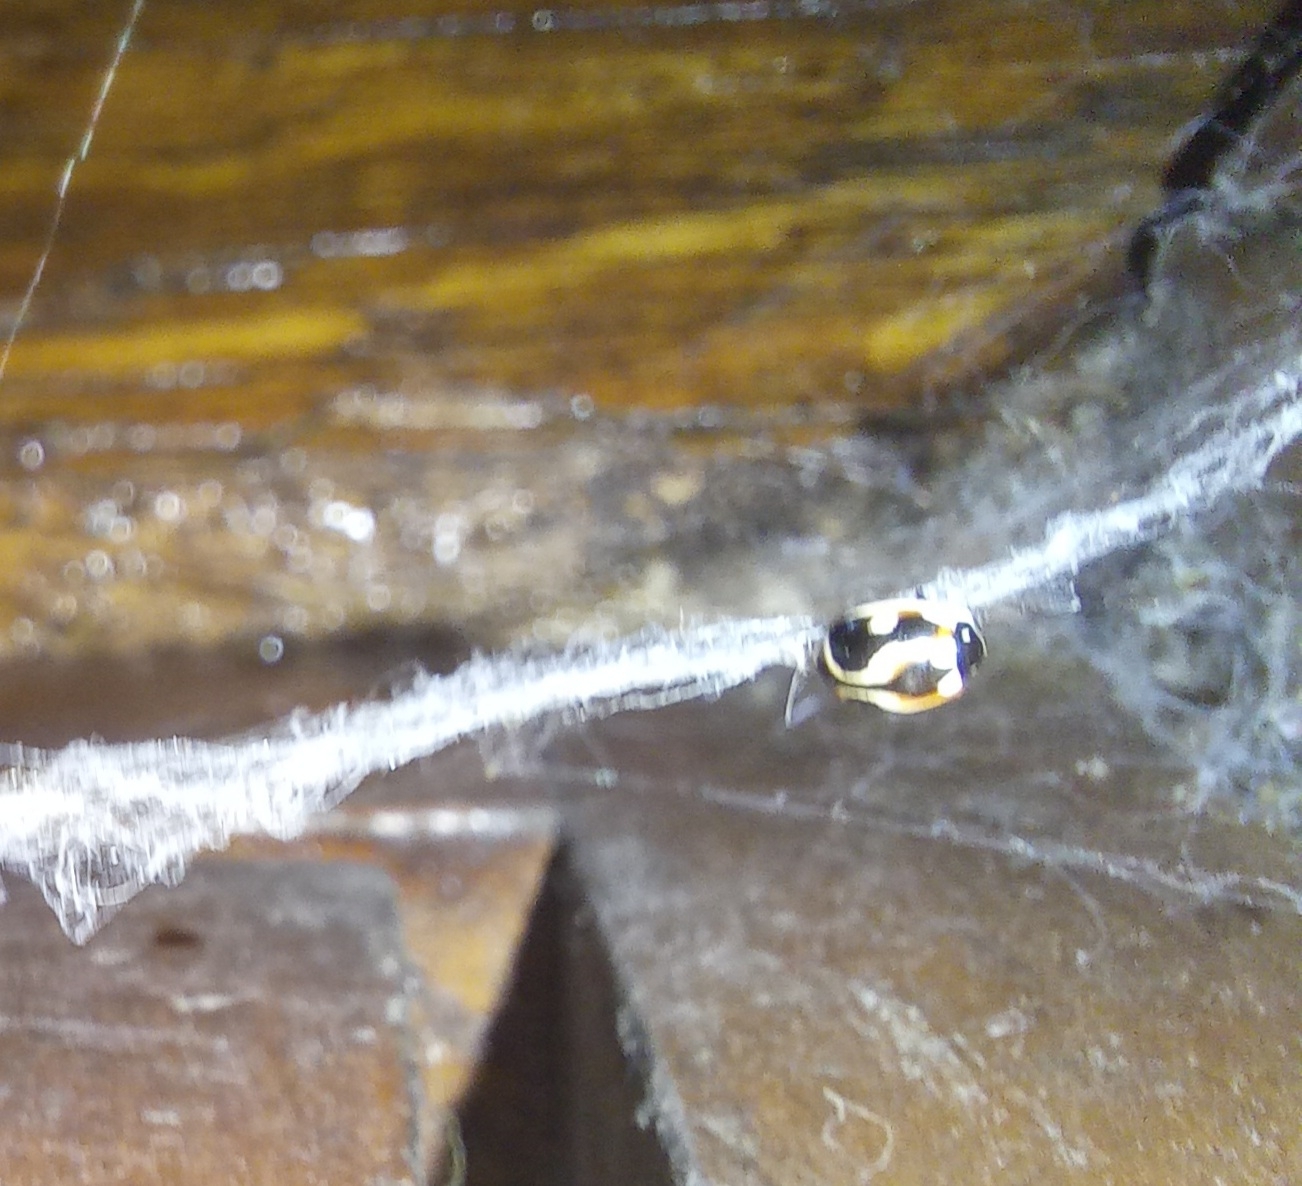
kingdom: Animalia
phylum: Arthropoda
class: Insecta
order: Coleoptera
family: Coccinellidae
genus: Cycloneda
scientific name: Cycloneda ancoralis
